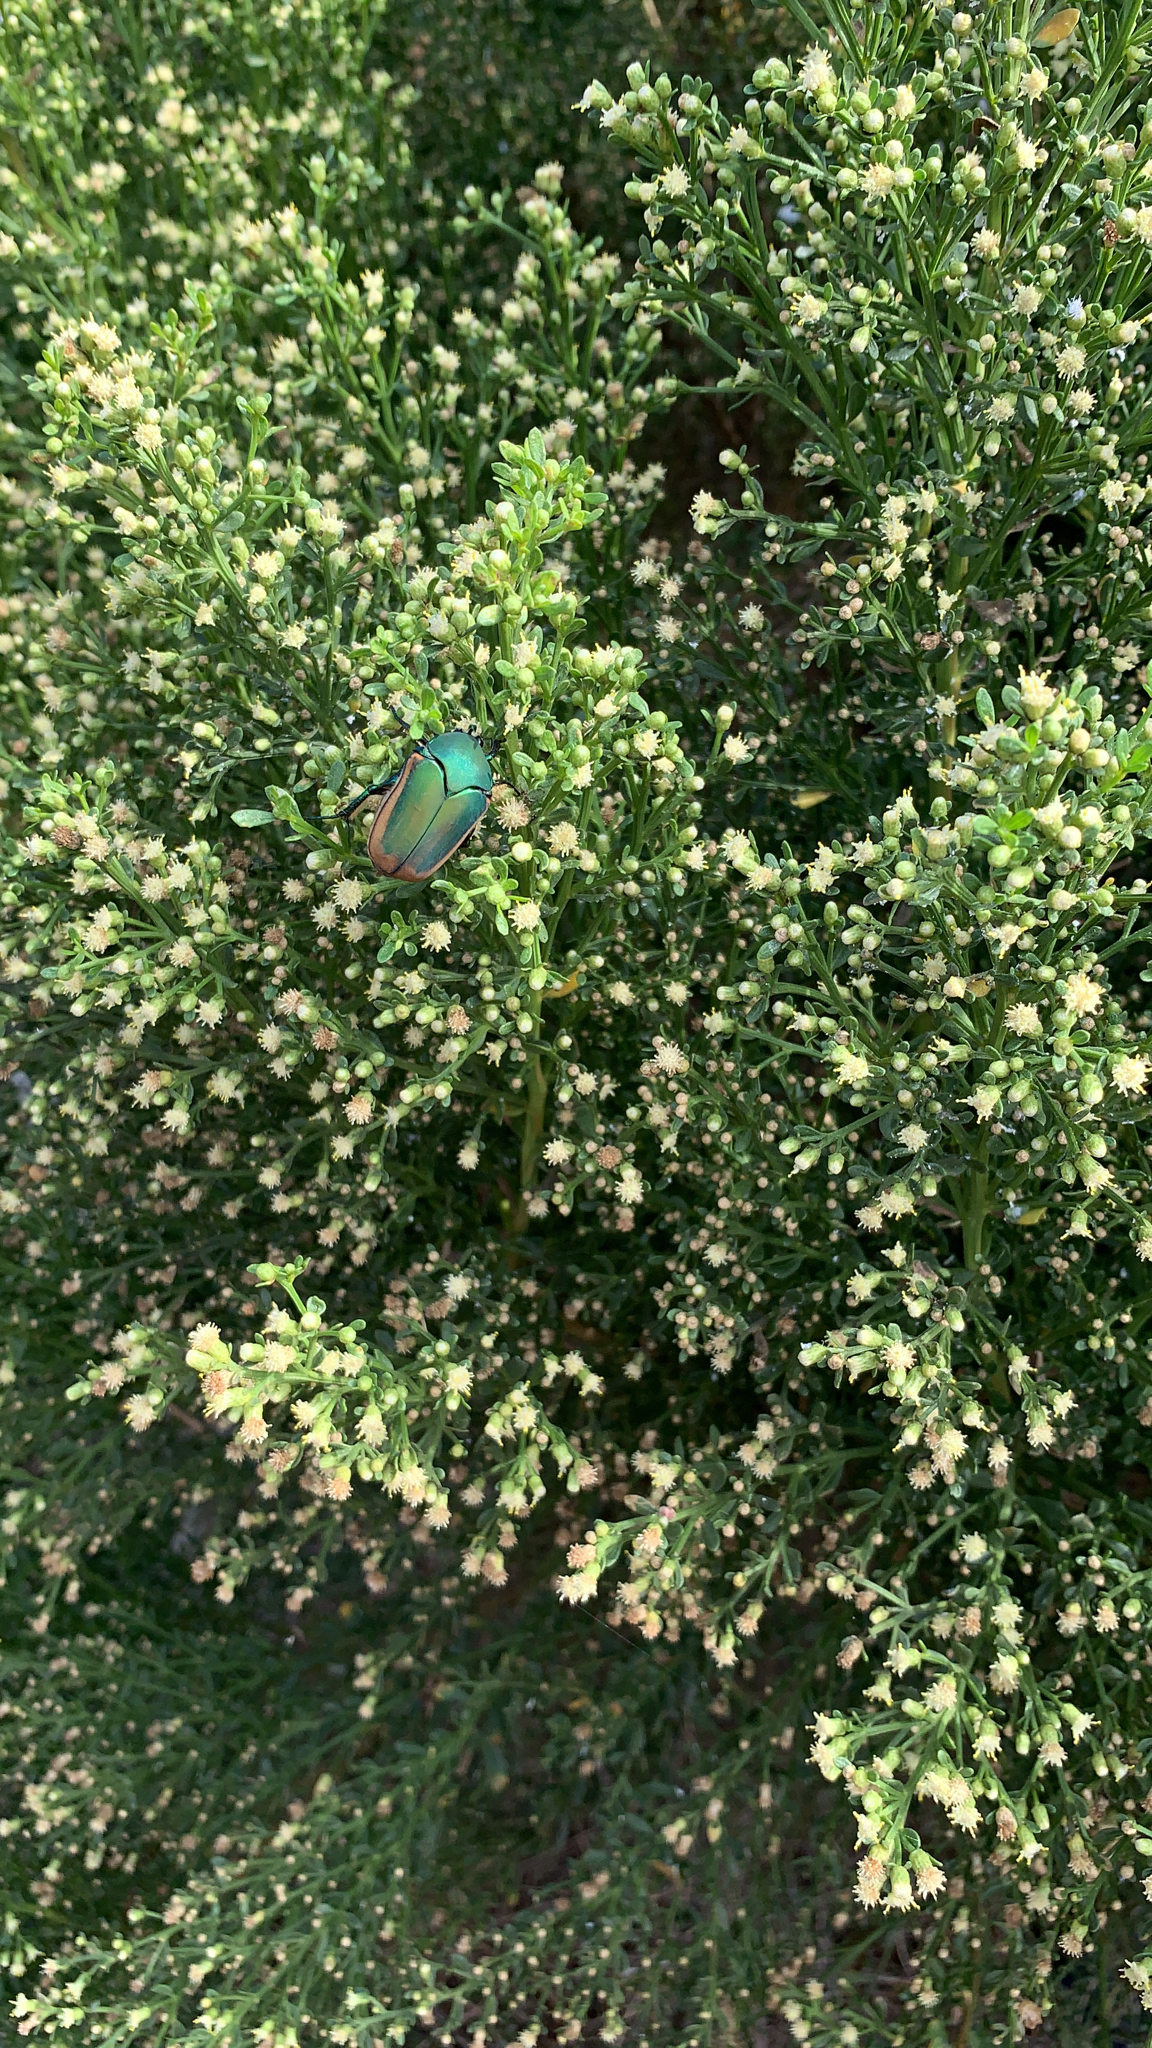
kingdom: Animalia
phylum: Arthropoda
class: Insecta
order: Coleoptera
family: Scarabaeidae
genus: Cotinis
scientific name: Cotinis mutabilis
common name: Figeater beetle
